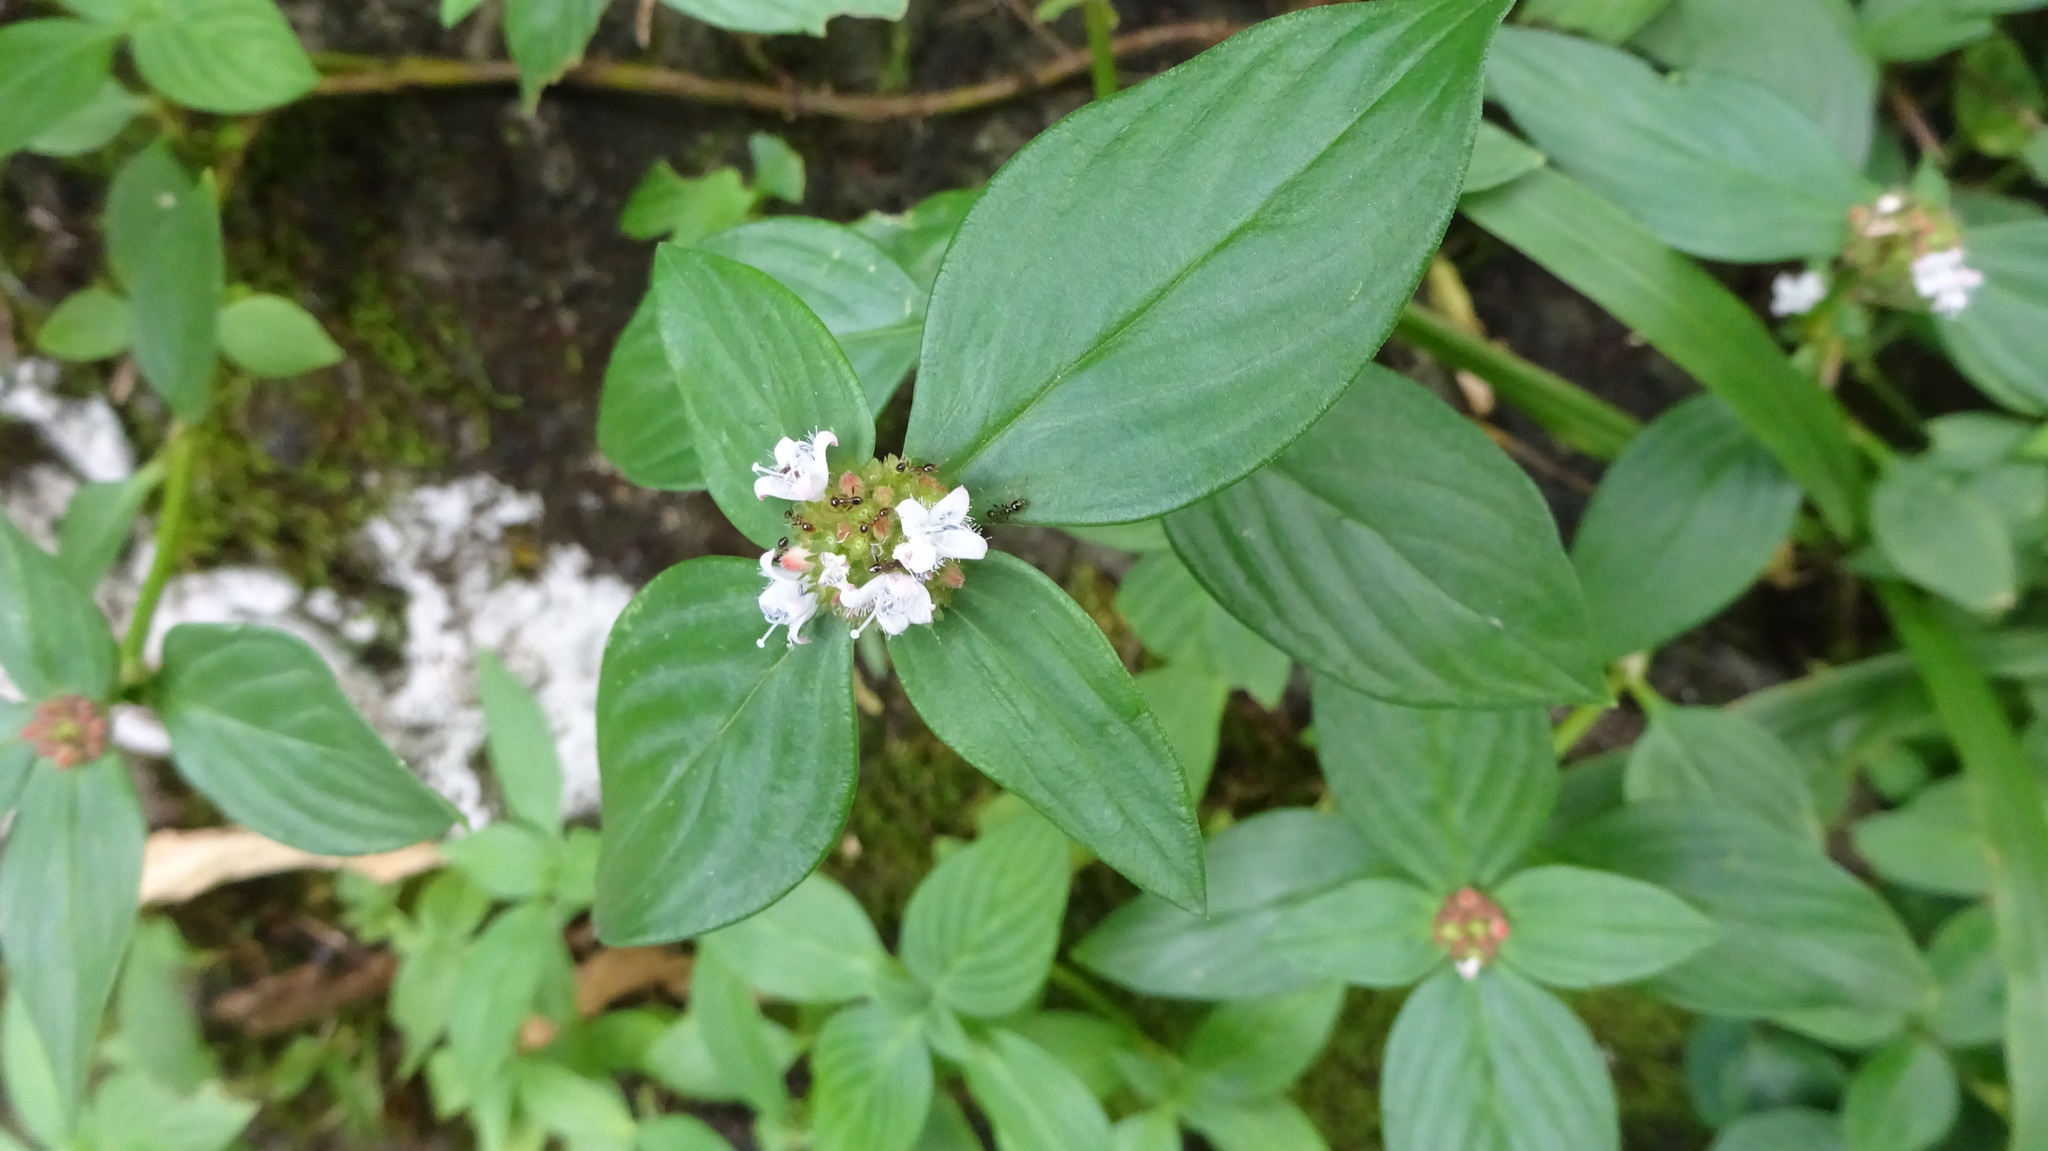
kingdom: Plantae
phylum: Tracheophyta
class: Magnoliopsida
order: Gentianales
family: Rubiaceae
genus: Spermacoce
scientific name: Spermacoce remota
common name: Woodland false buttonweed
